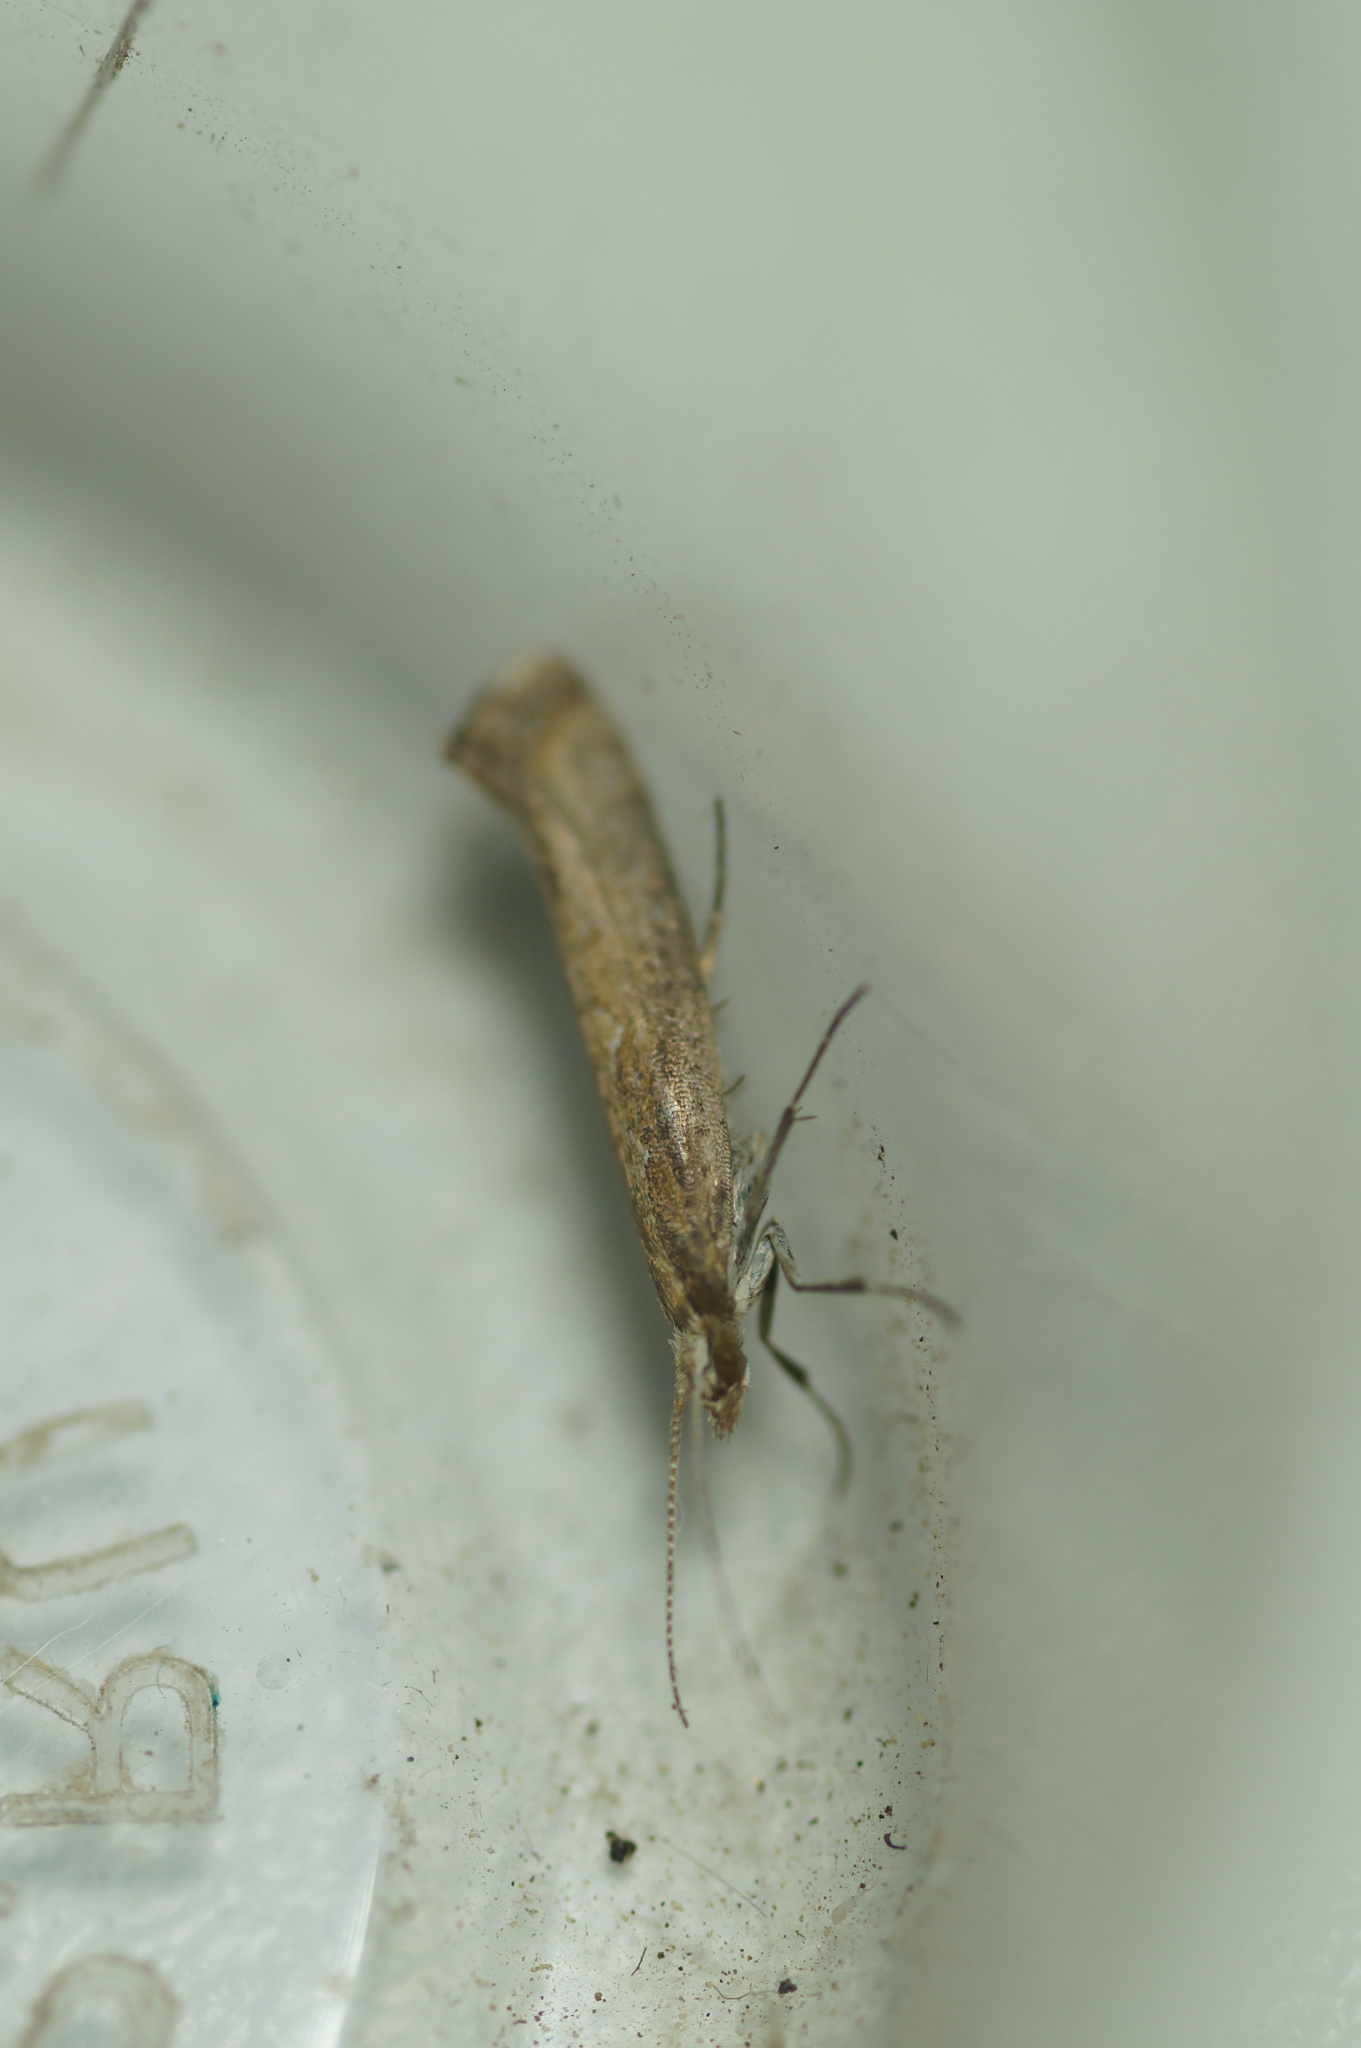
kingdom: Animalia
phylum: Arthropoda
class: Insecta
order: Lepidoptera
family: Plutellidae
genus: Plutella
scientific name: Plutella xylostella
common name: Diamond-back moth
